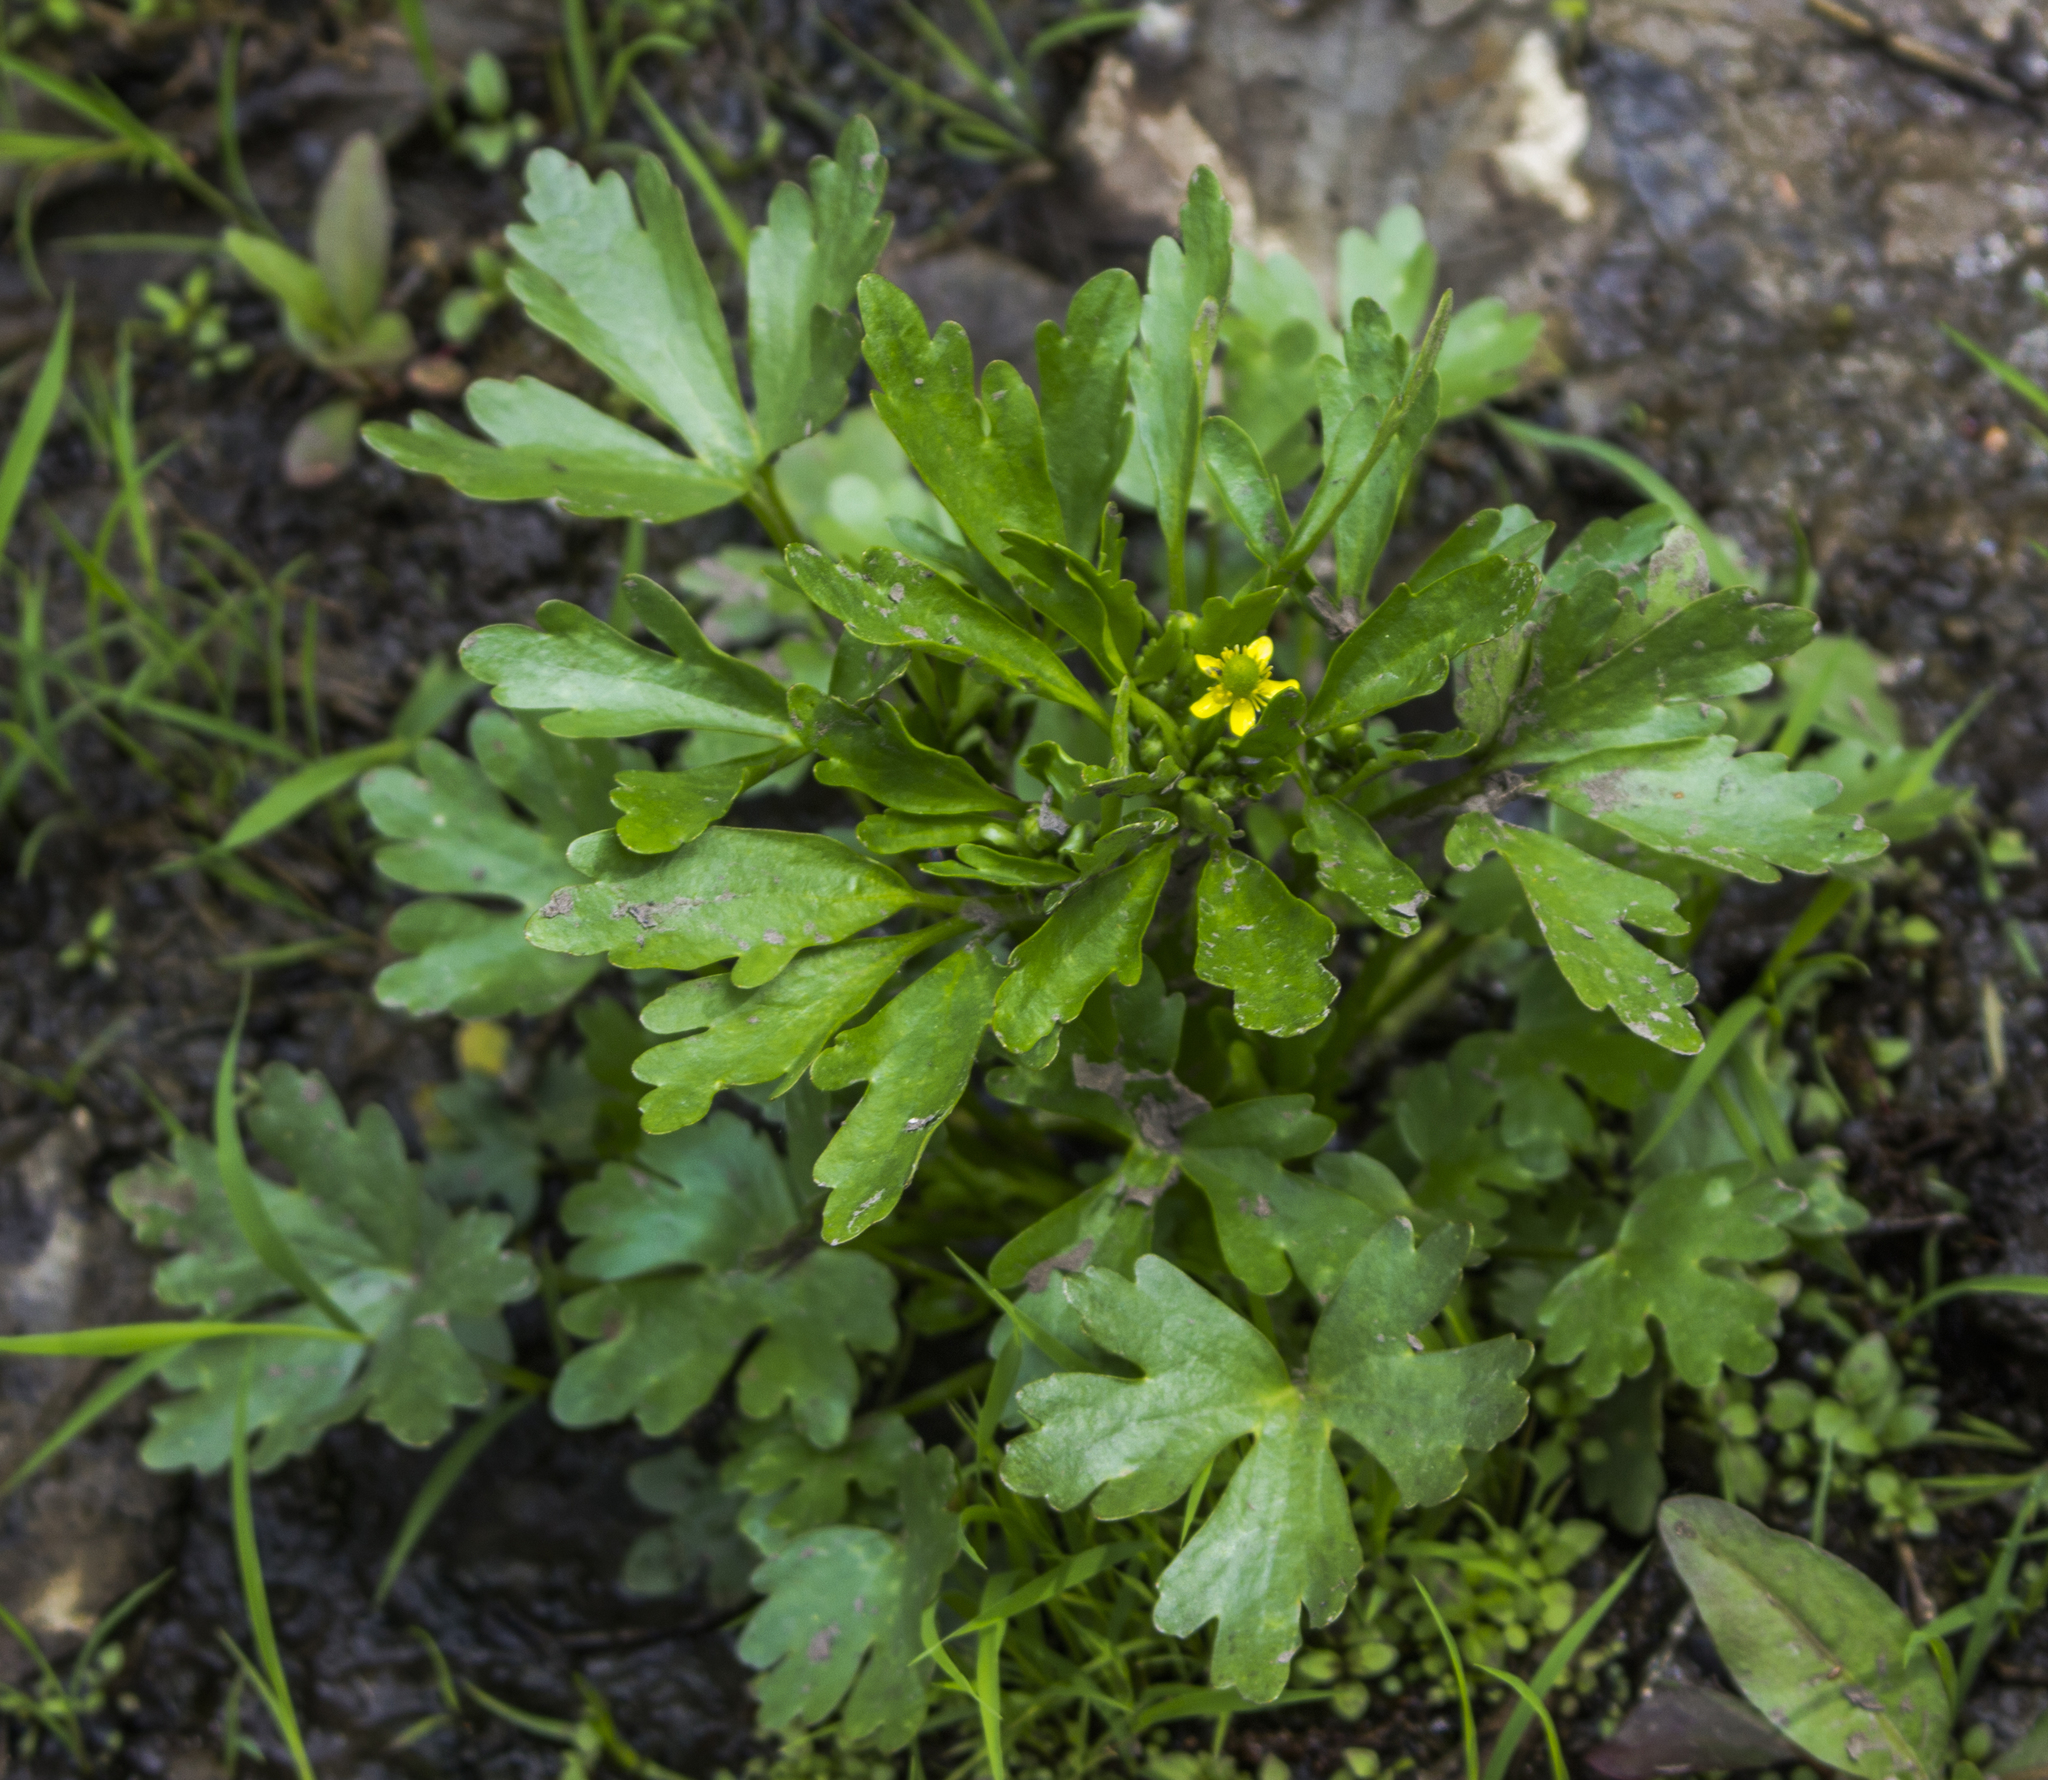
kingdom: Plantae
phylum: Tracheophyta
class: Magnoliopsida
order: Ranunculales
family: Ranunculaceae
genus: Ranunculus
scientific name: Ranunculus sceleratus
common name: Celery-leaved buttercup
